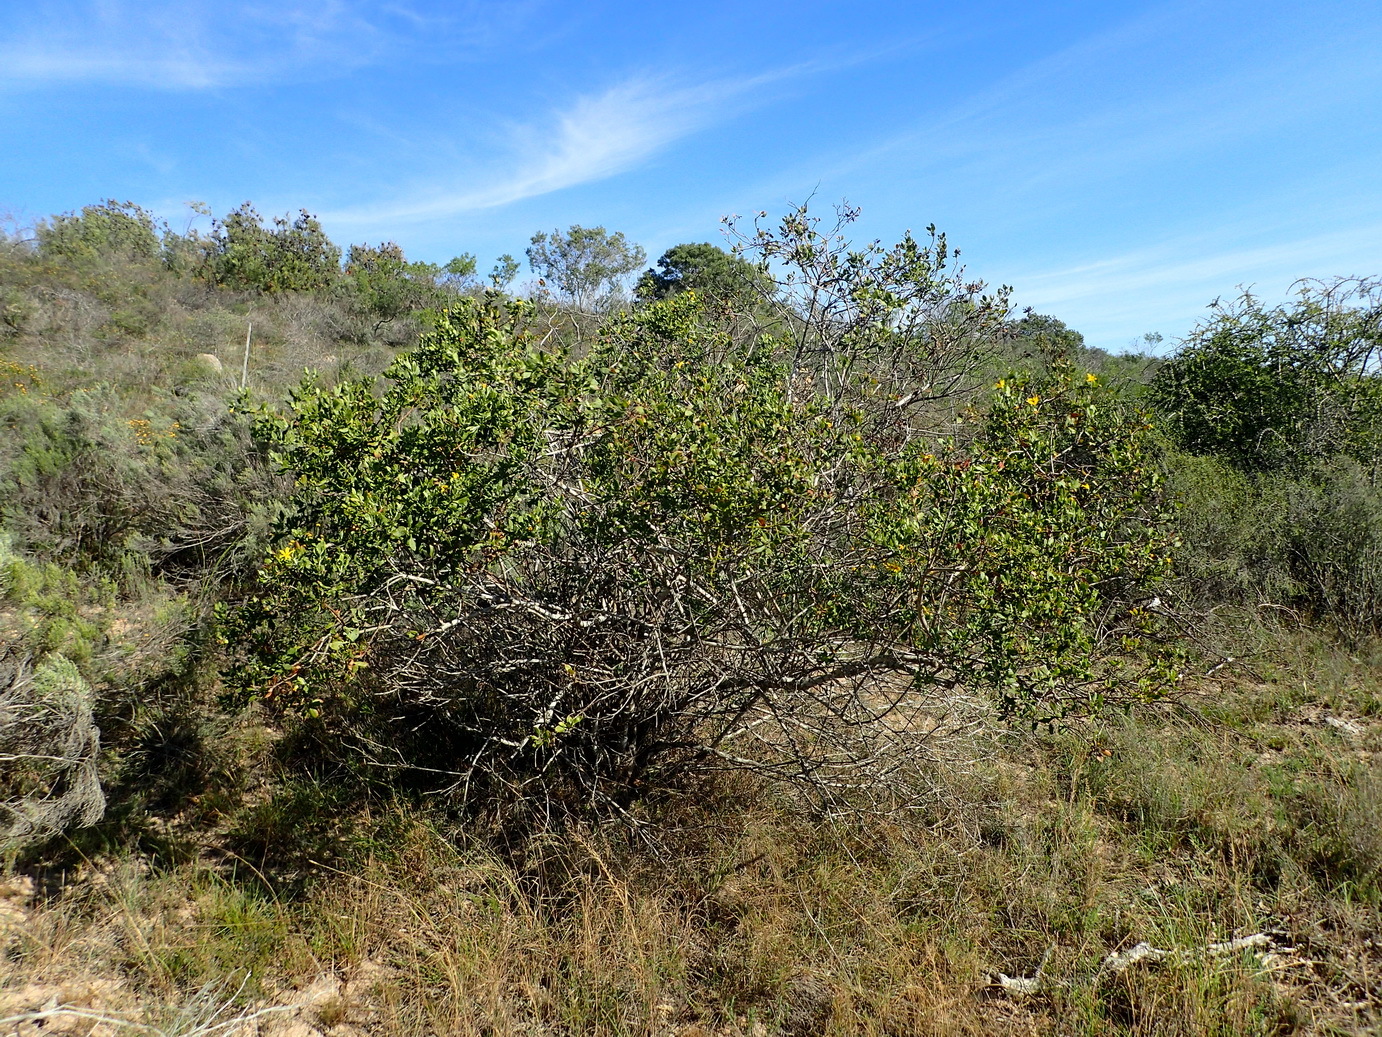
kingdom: Plantae
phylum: Tracheophyta
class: Magnoliopsida
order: Asterales
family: Asteraceae
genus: Osteospermum
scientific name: Osteospermum moniliferum
